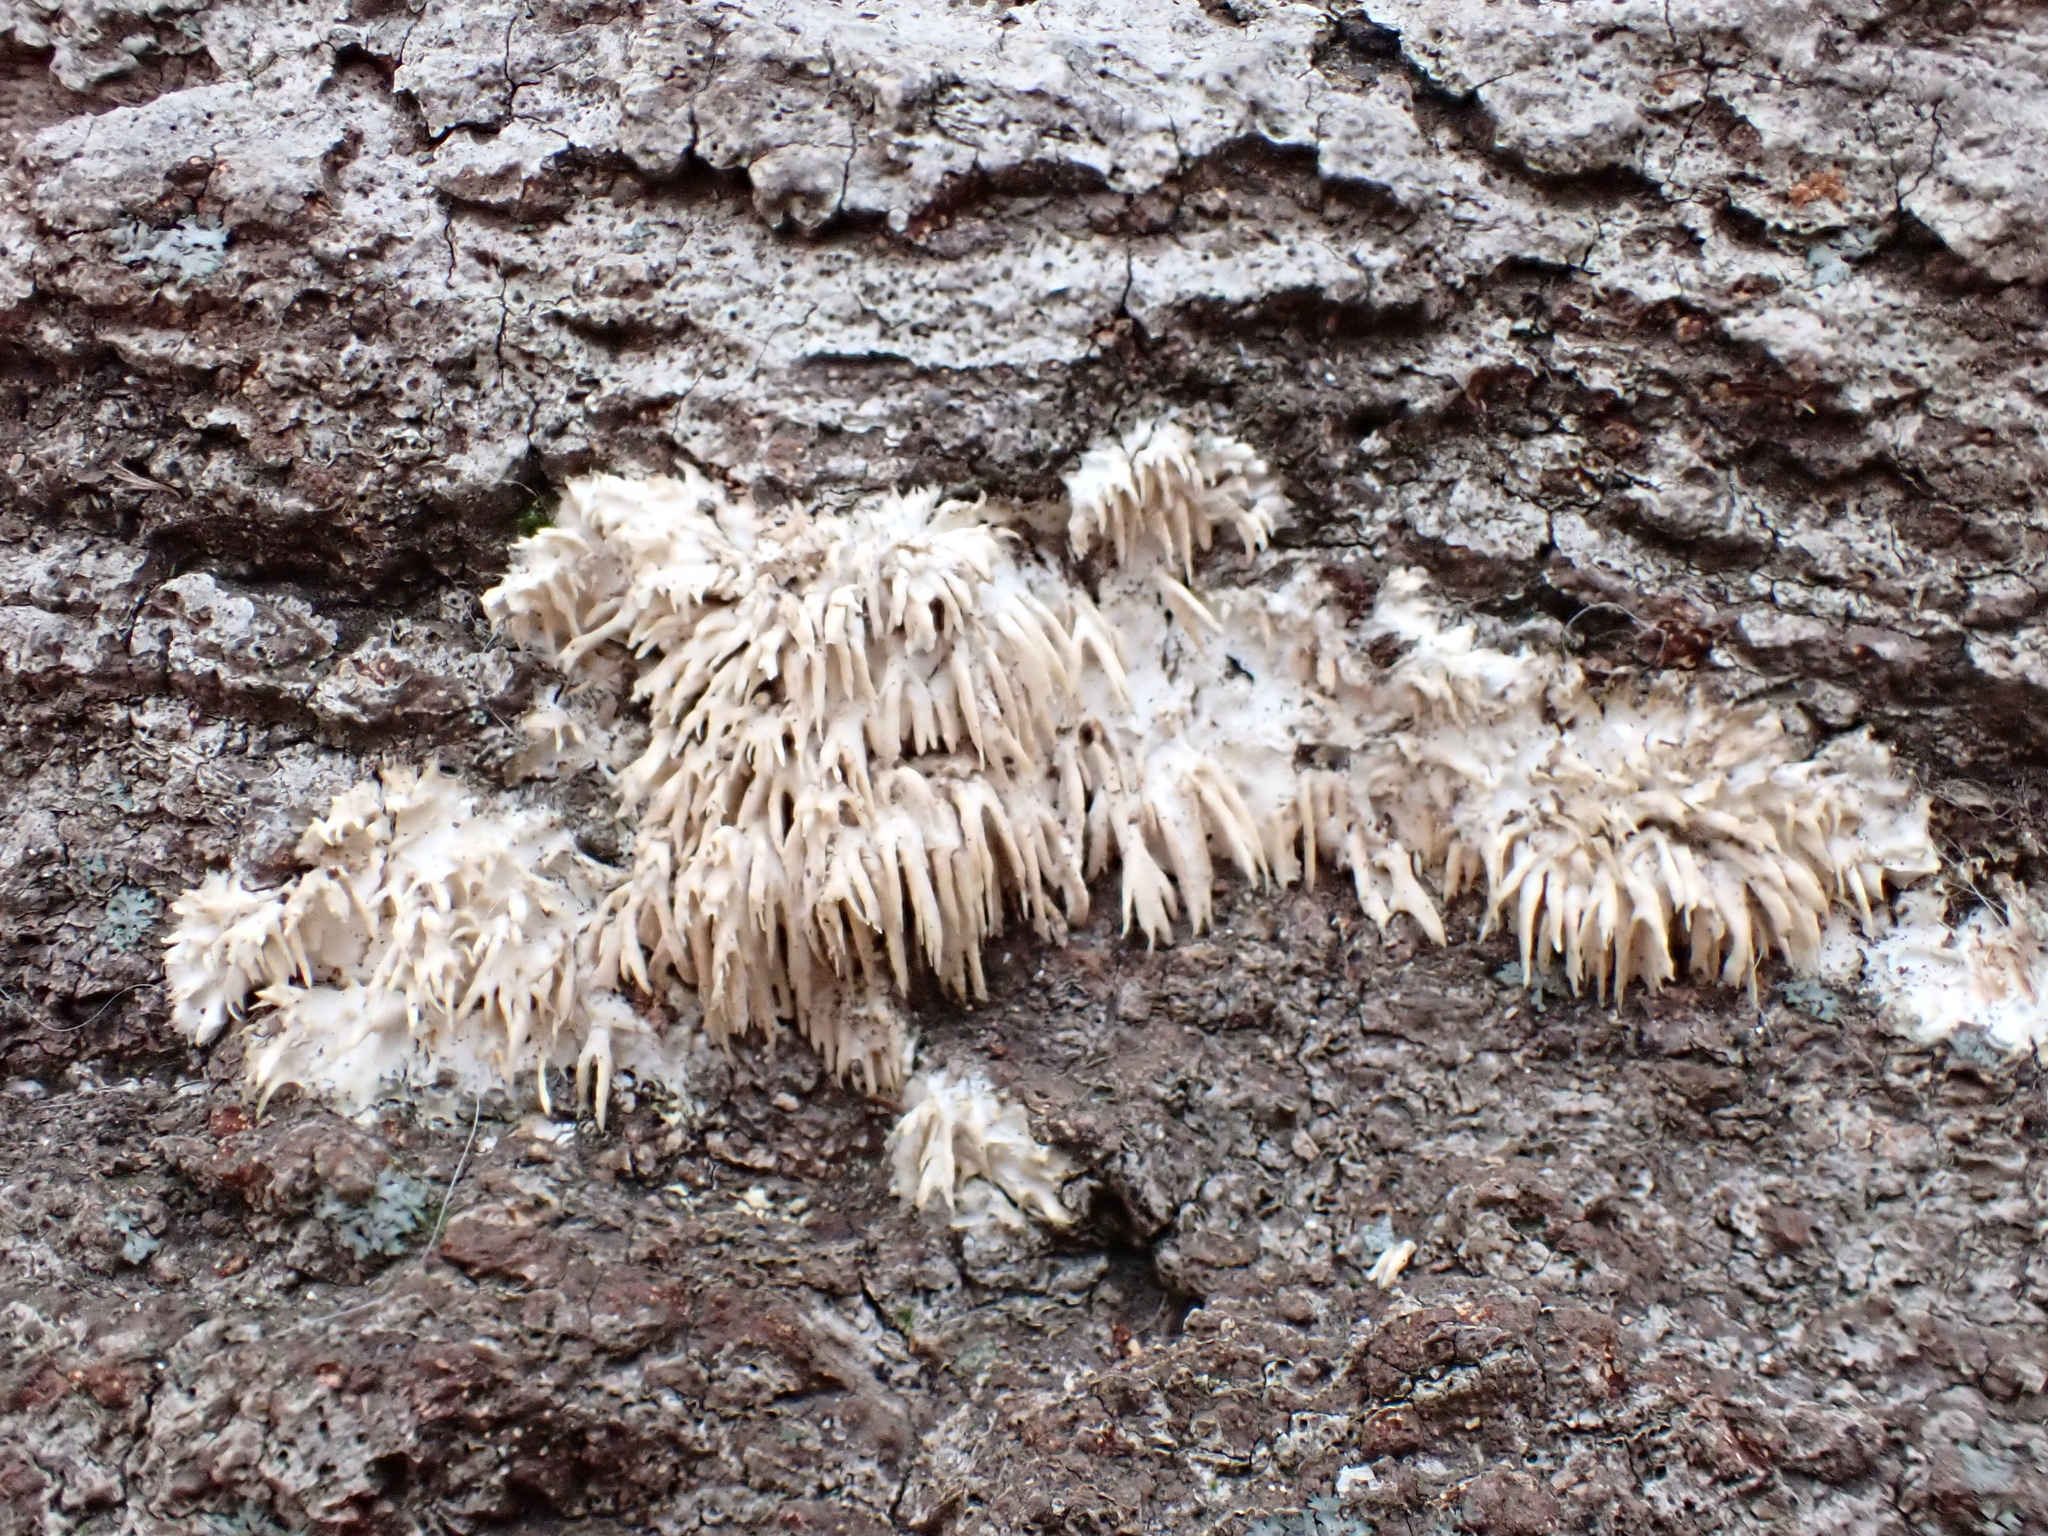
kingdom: Fungi
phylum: Basidiomycota
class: Agaricomycetes
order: Agaricales
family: Radulomycetaceae
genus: Radulomyces
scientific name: Radulomyces copelandii
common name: Asian beauty
